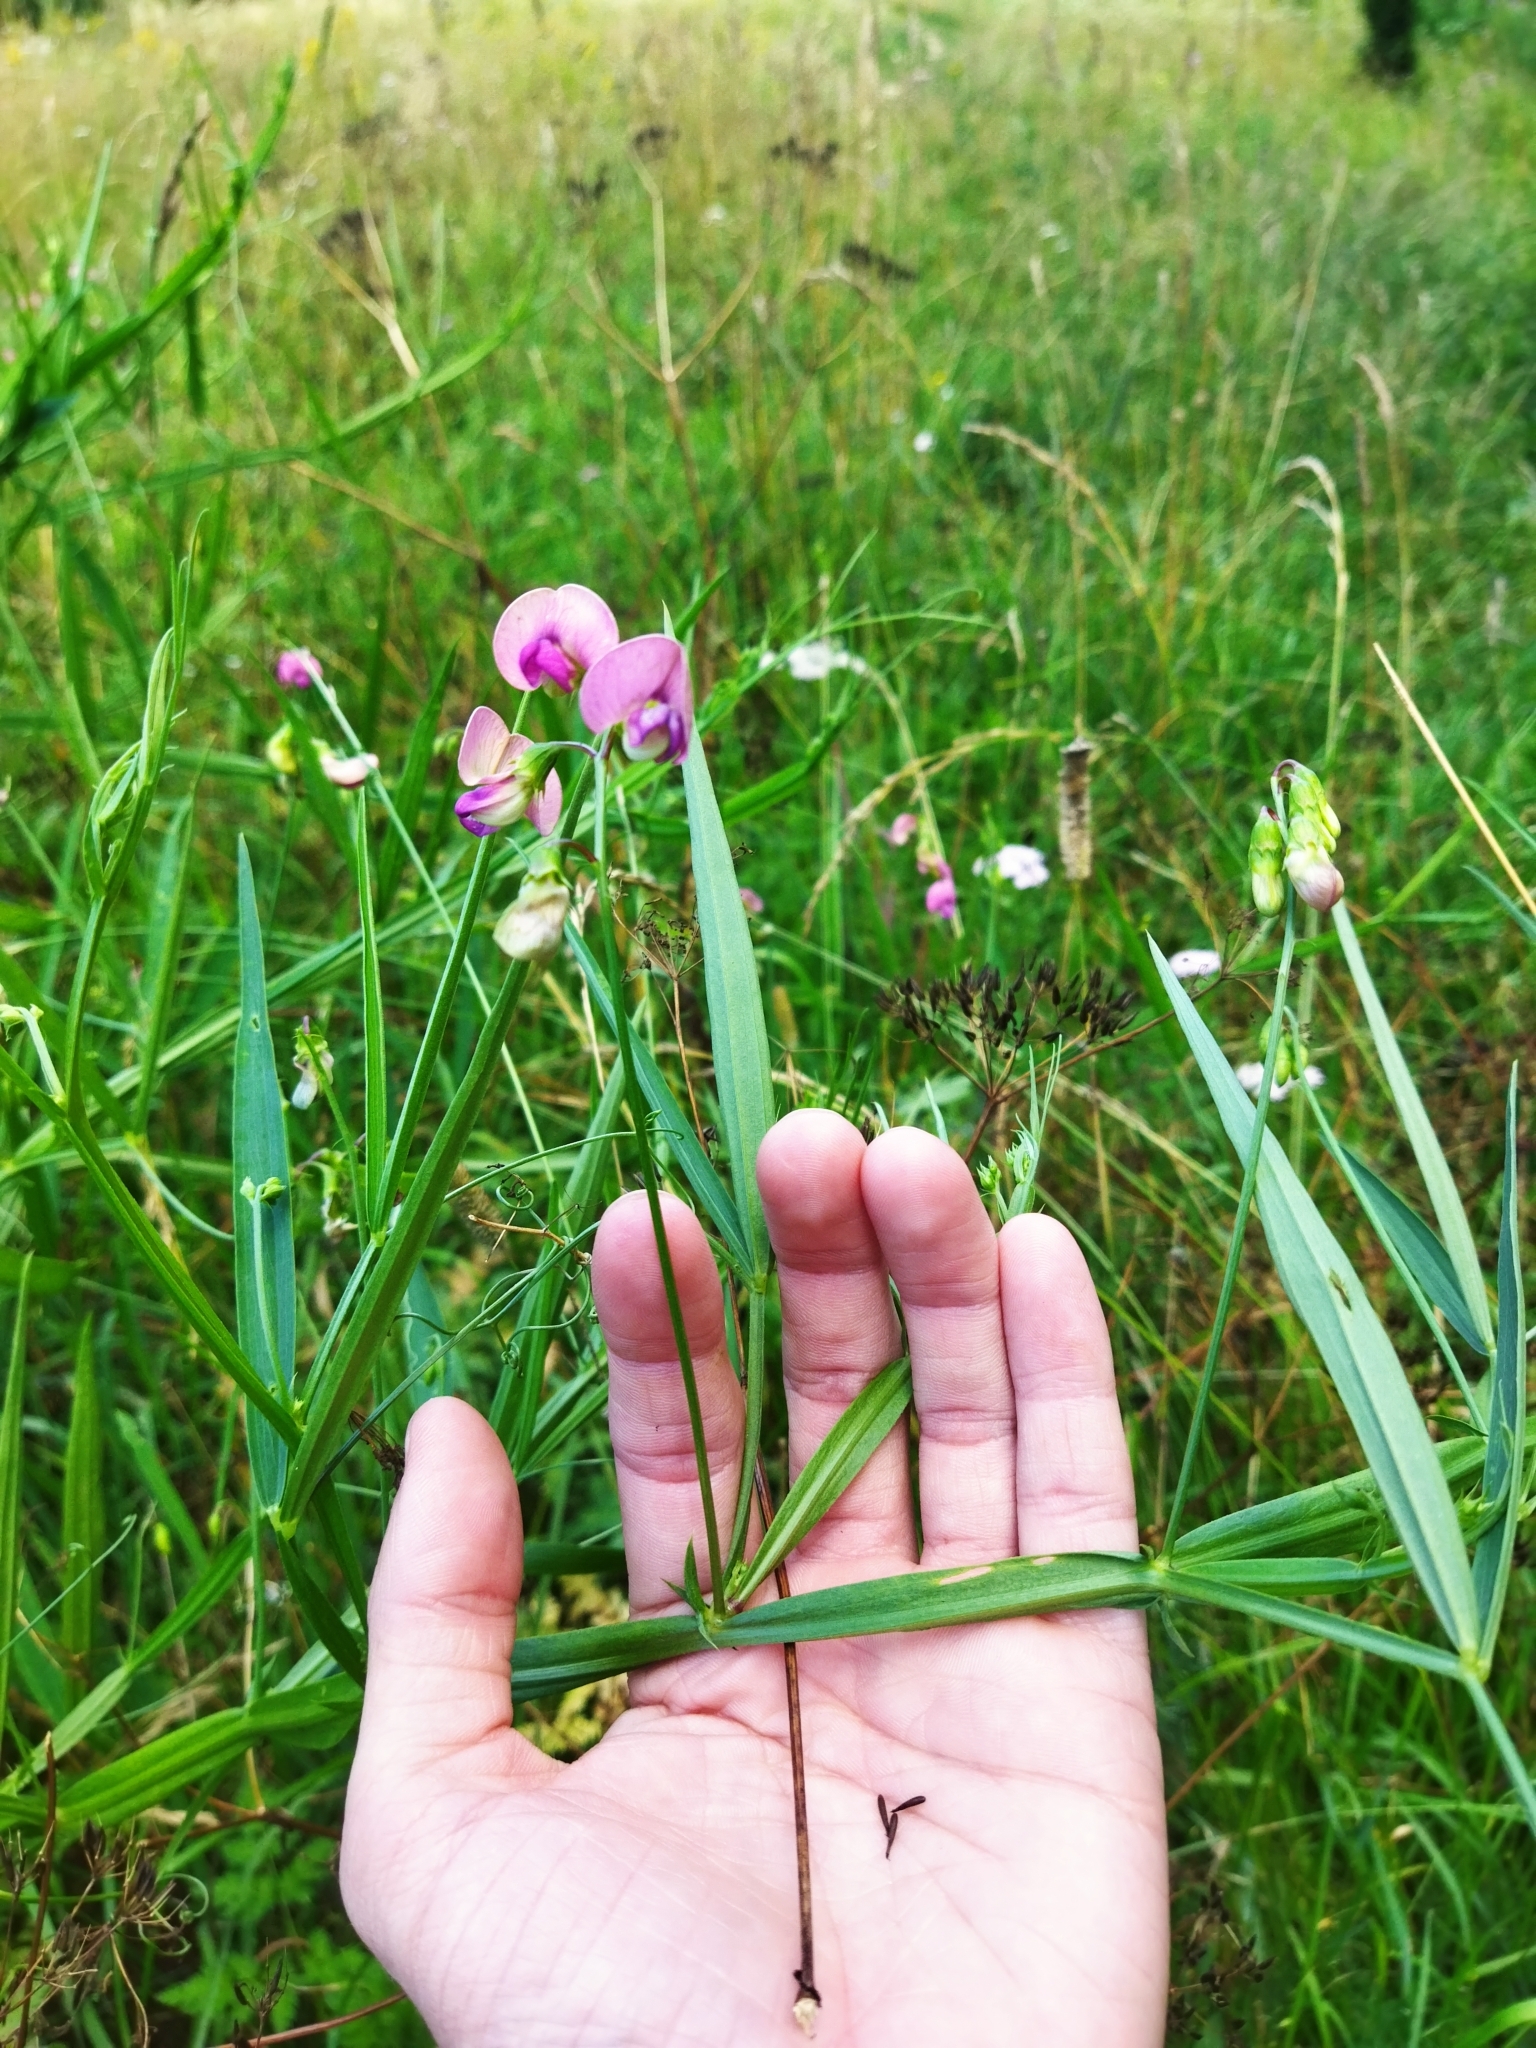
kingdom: Plantae
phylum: Tracheophyta
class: Magnoliopsida
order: Fabales
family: Fabaceae
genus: Lathyrus
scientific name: Lathyrus sylvestris
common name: Flat pea
